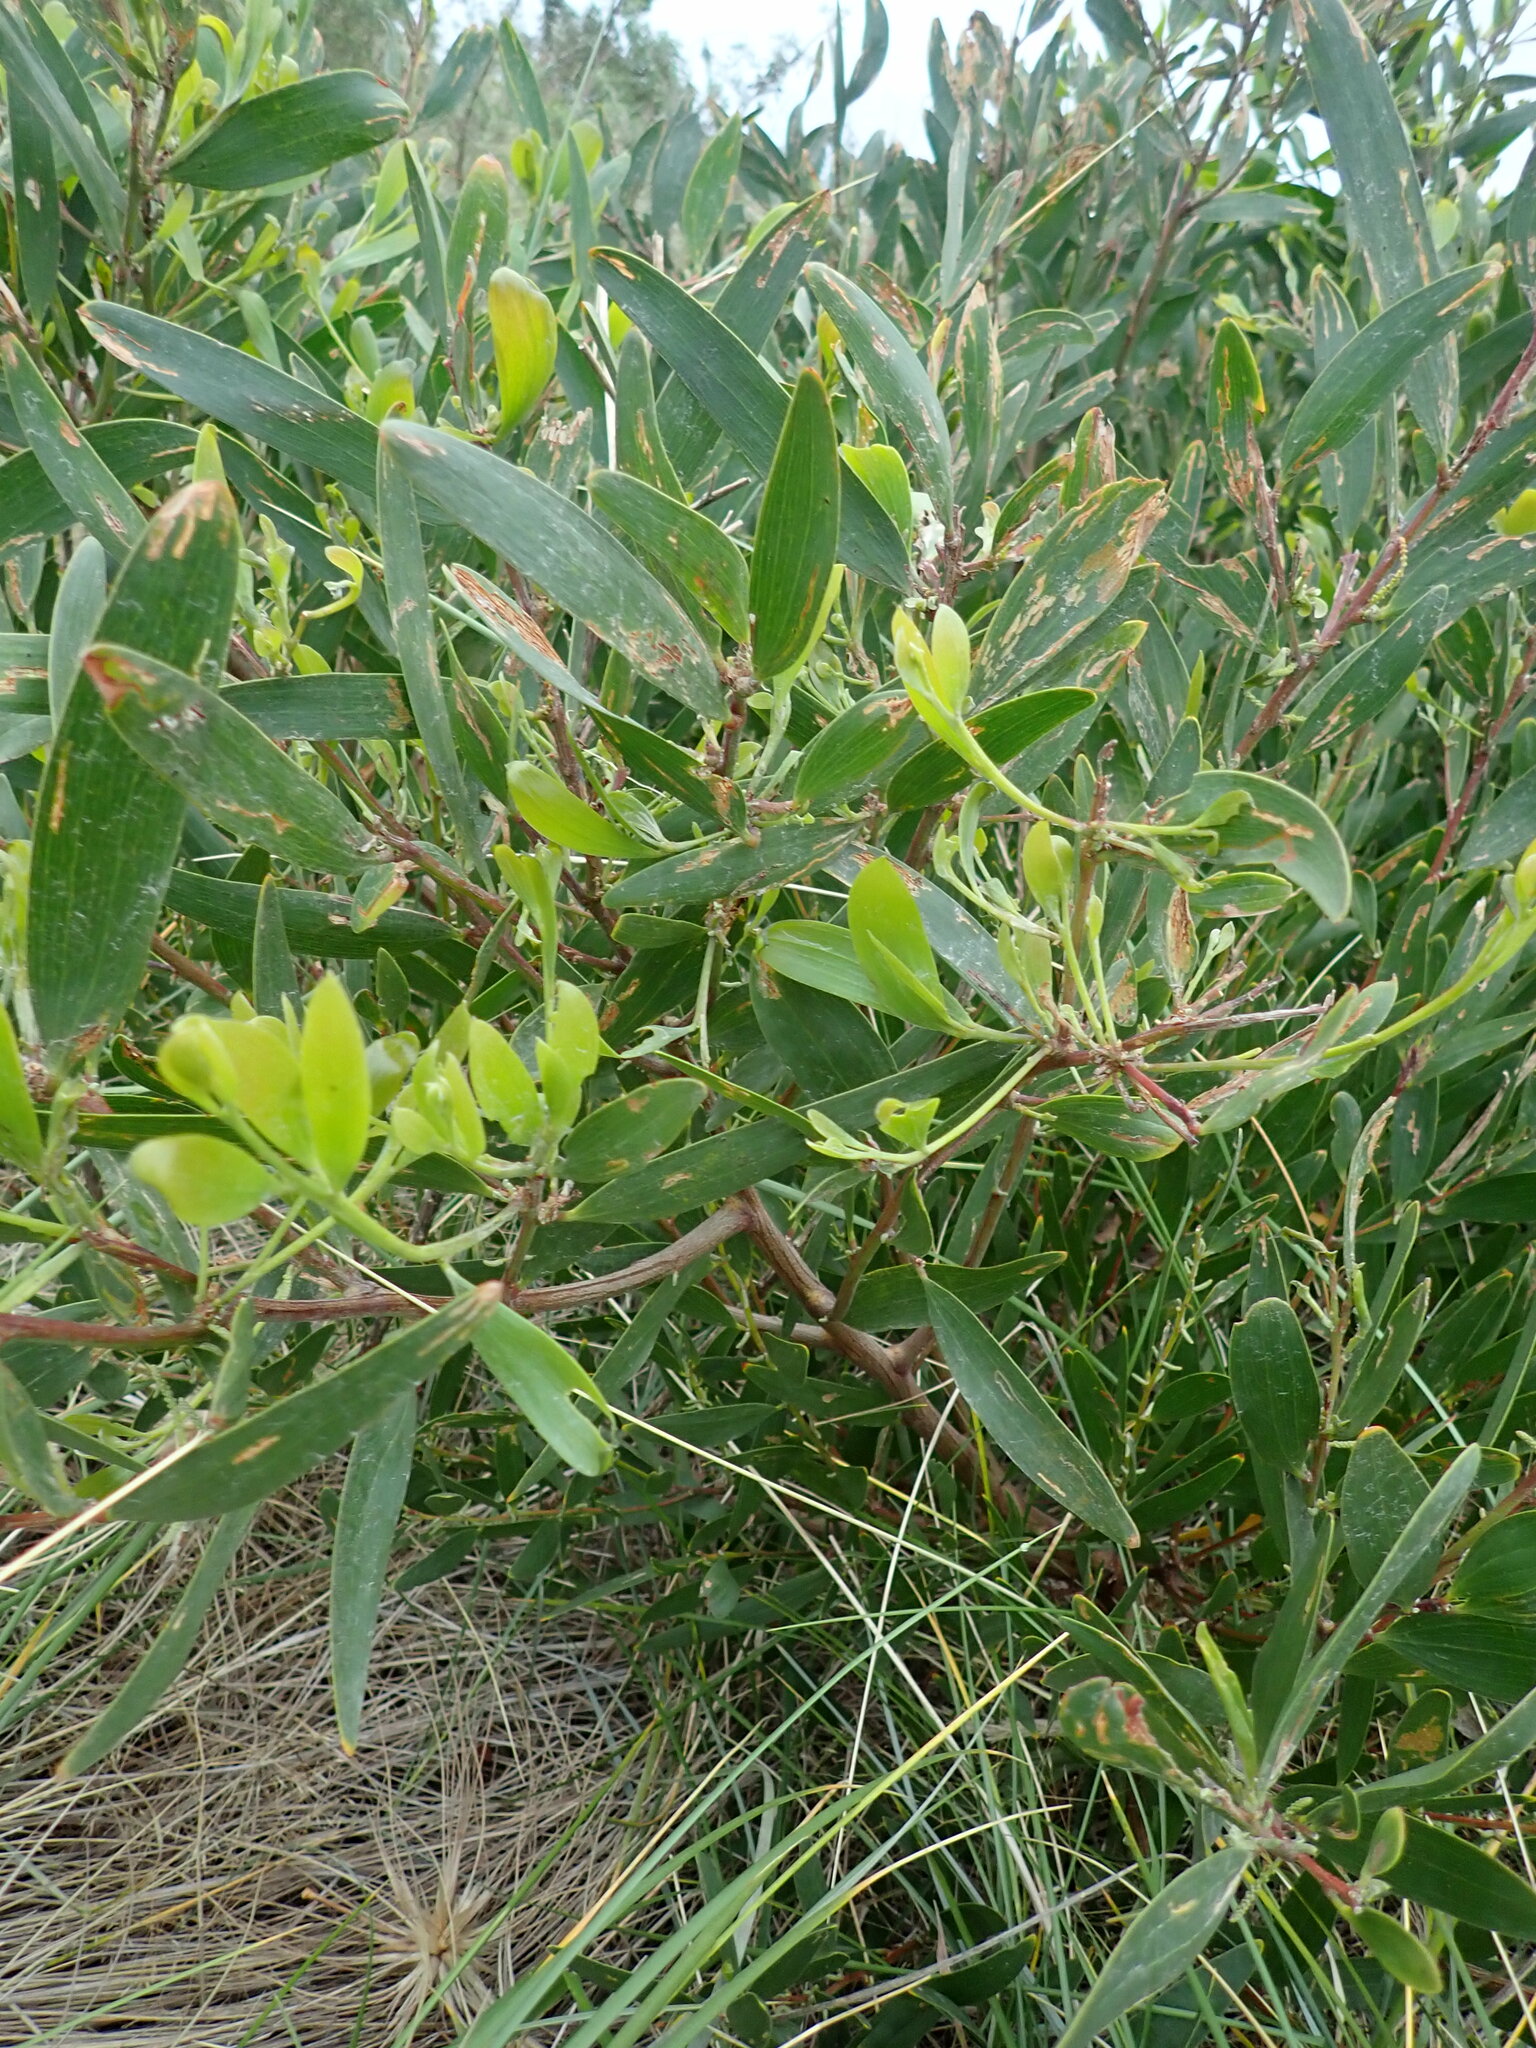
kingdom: Plantae
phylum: Tracheophyta
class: Magnoliopsida
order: Fabales
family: Fabaceae
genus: Acacia
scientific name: Acacia longifolia
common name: Sydney golden wattle
